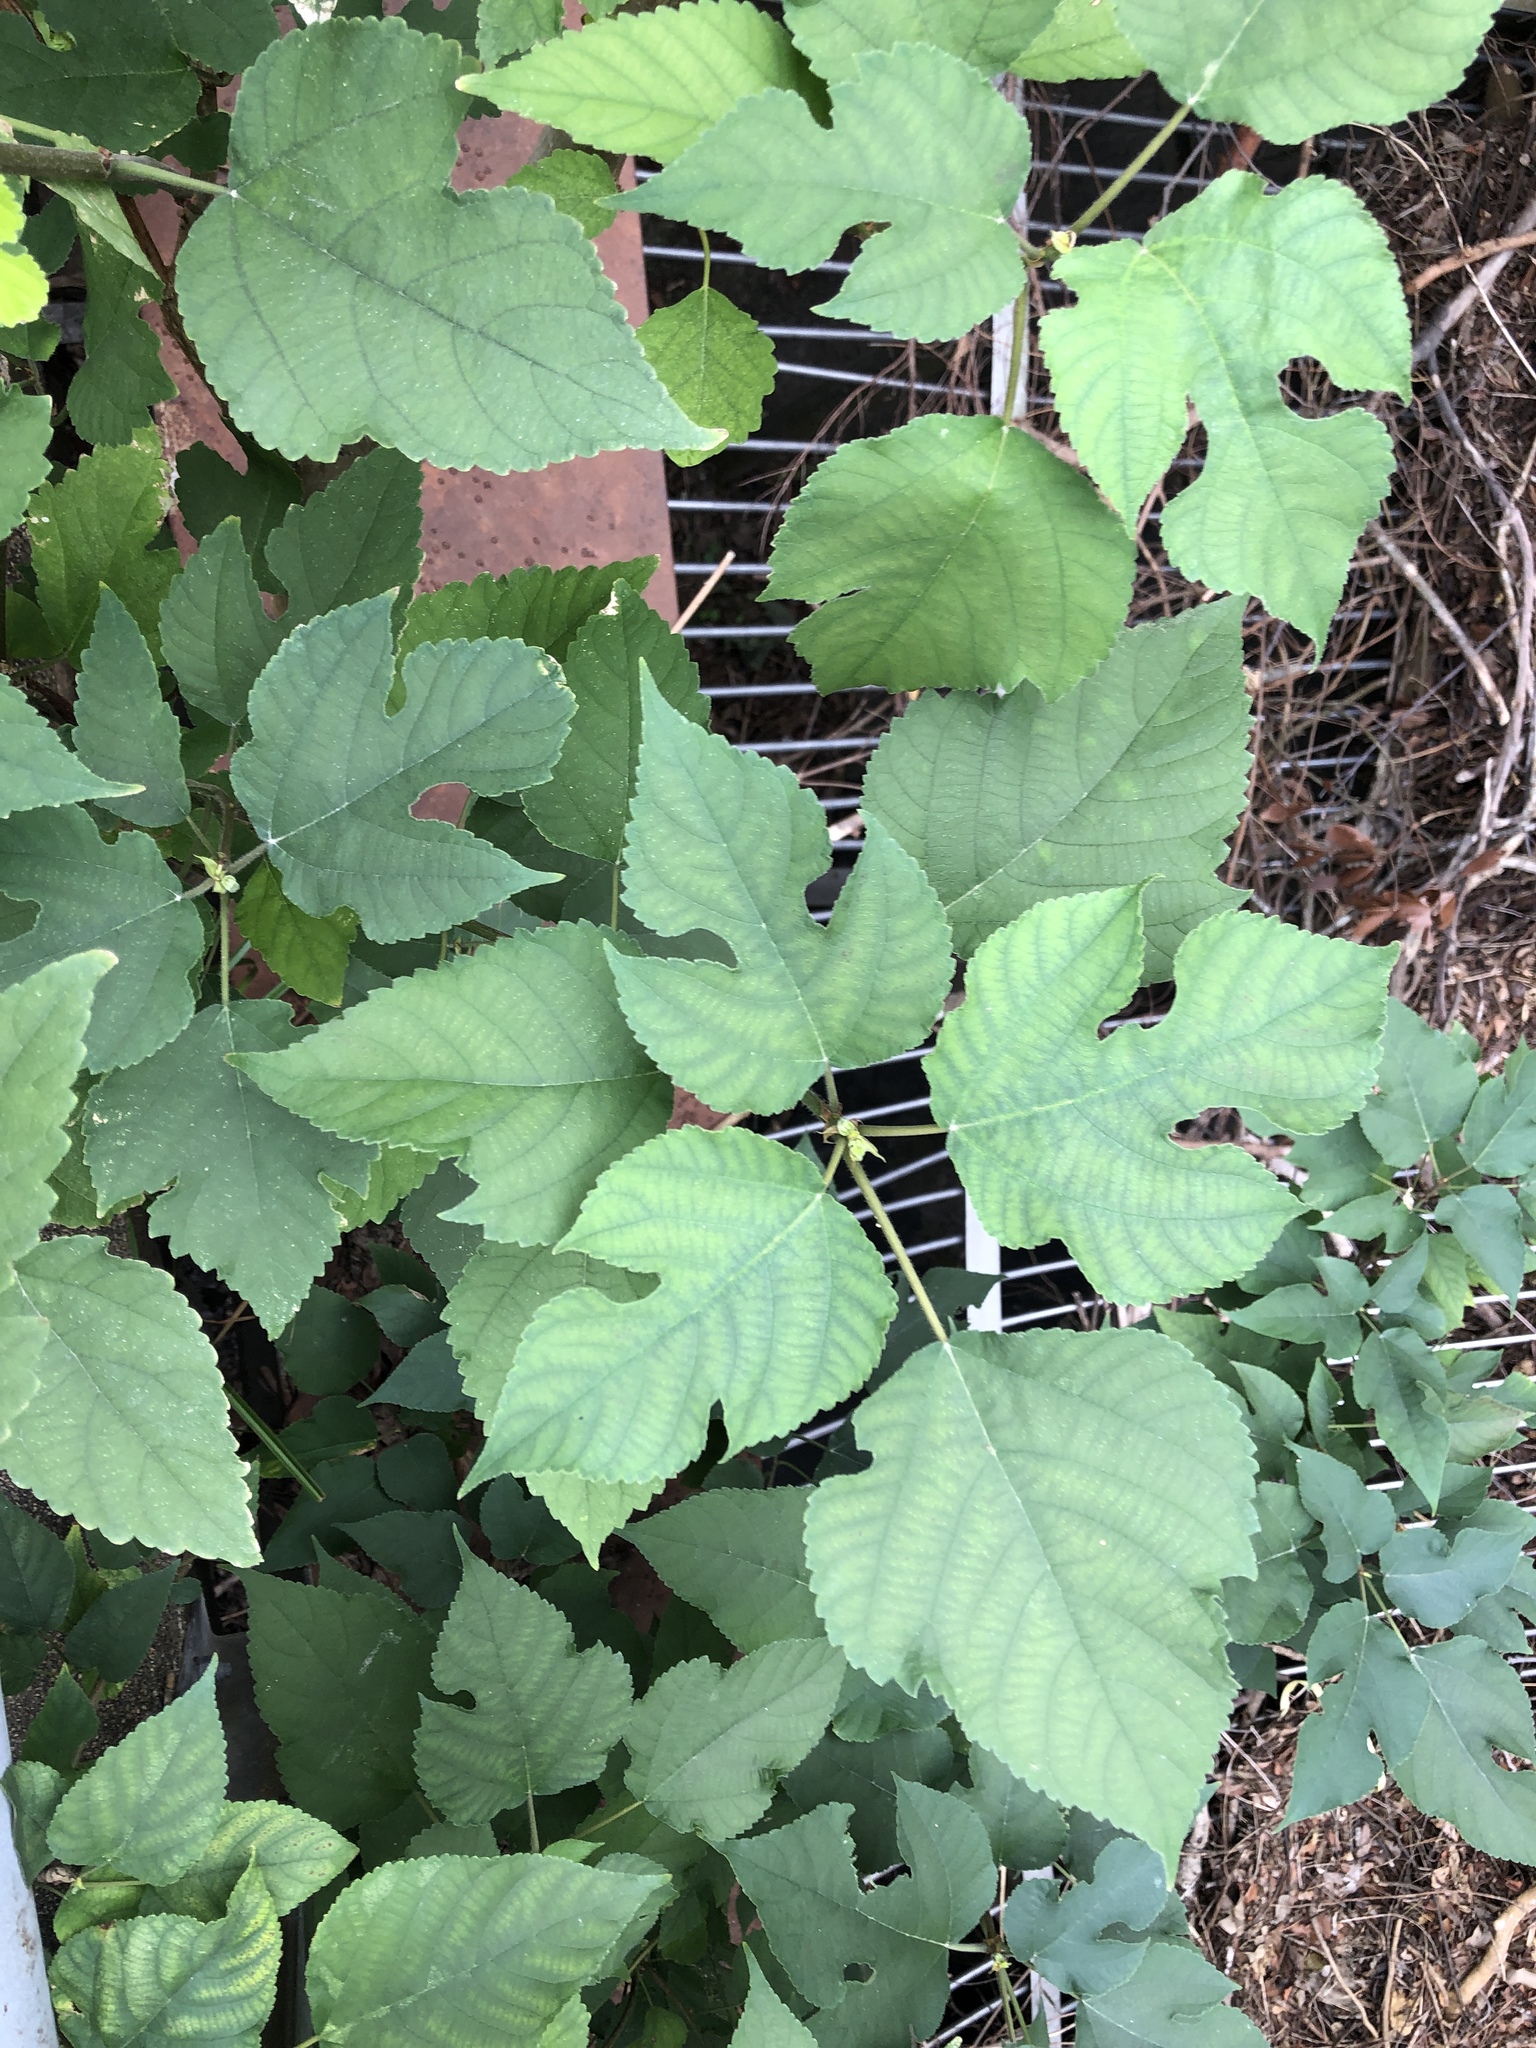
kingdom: Plantae
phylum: Tracheophyta
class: Magnoliopsida
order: Rosales
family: Moraceae
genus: Broussonetia
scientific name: Broussonetia papyrifera
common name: Paper mulberry
